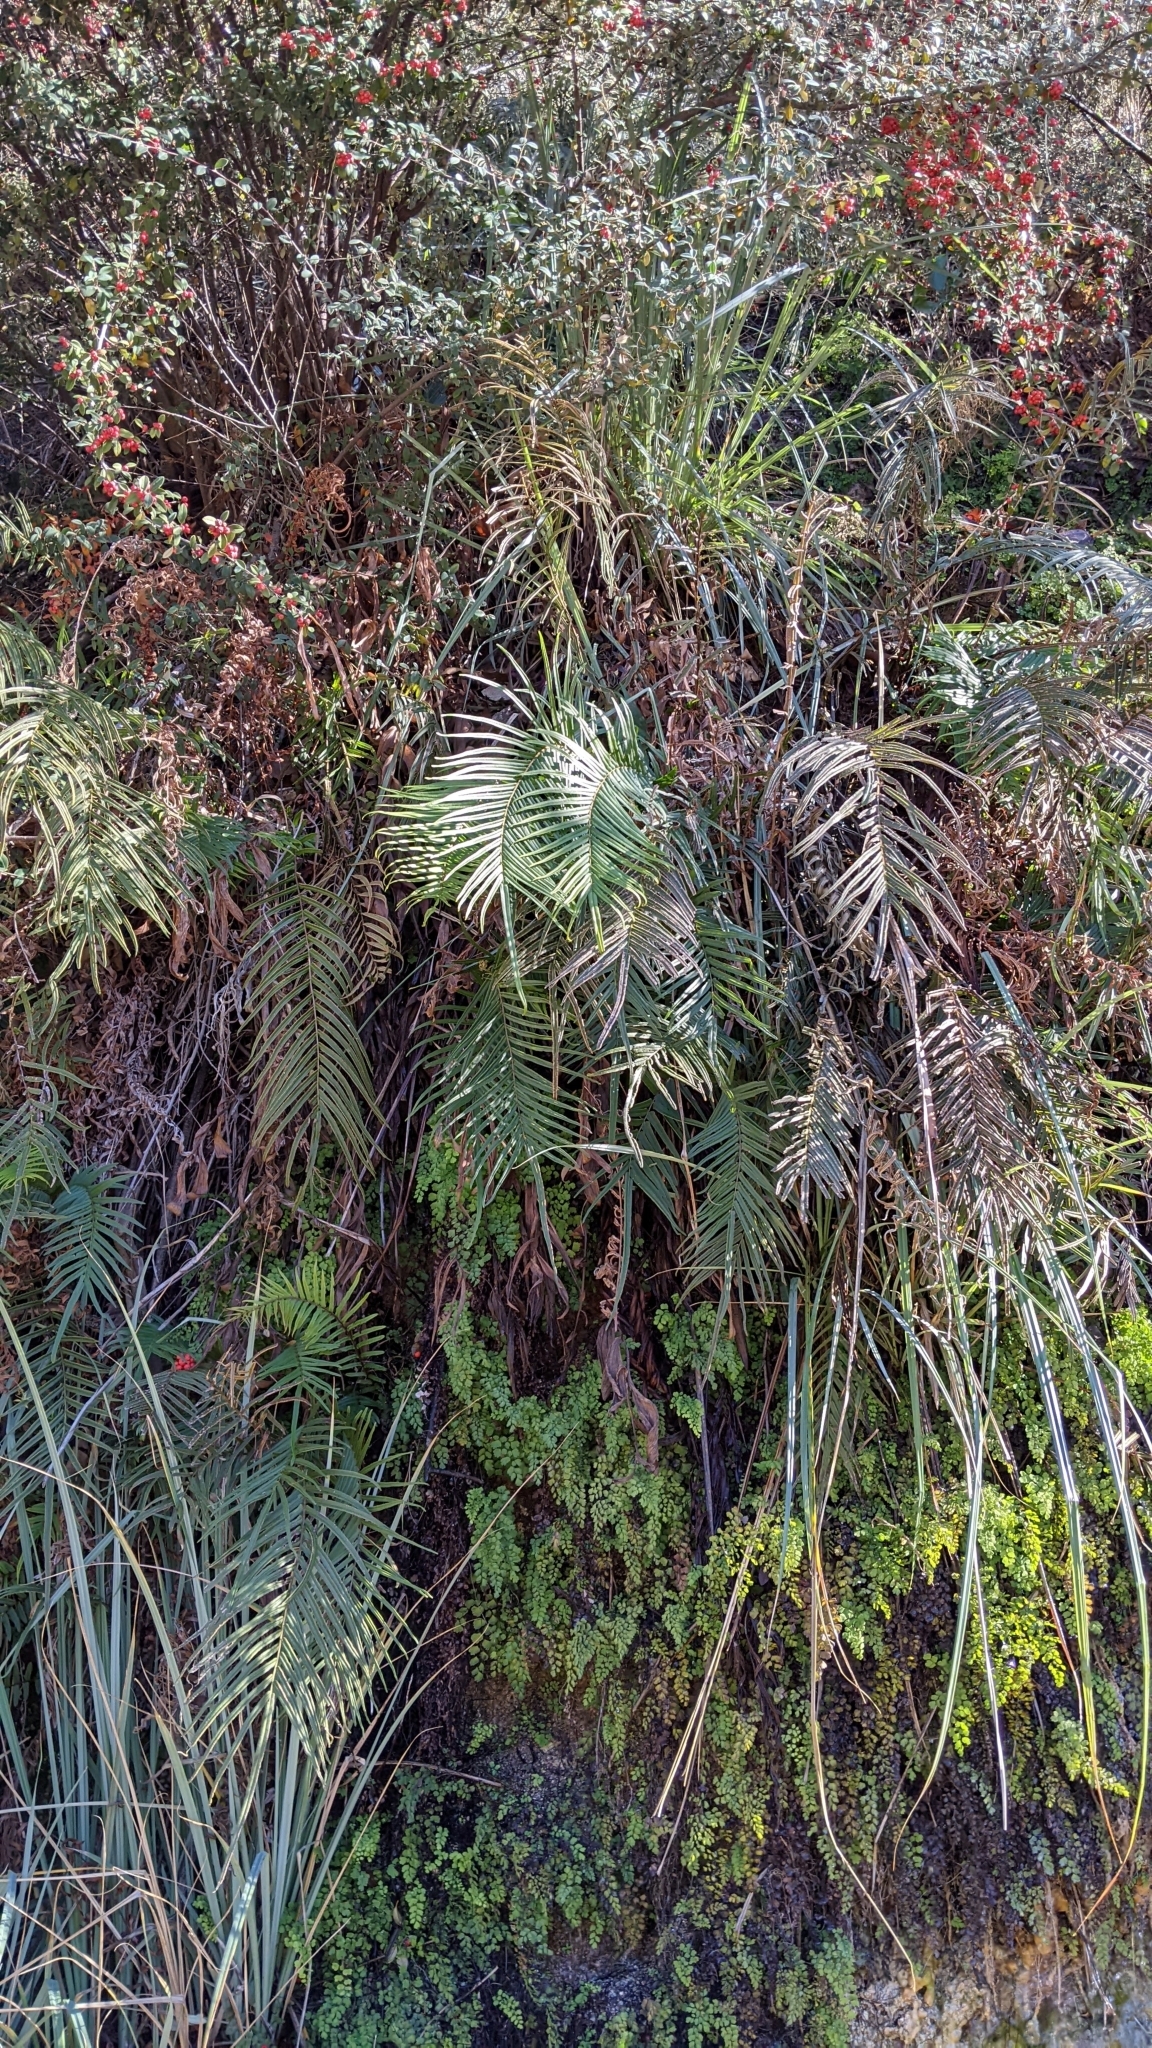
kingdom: Plantae
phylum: Tracheophyta
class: Polypodiopsida
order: Polypodiales
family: Pteridaceae
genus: Pteris
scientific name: Pteris vittata
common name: Ladder brake
